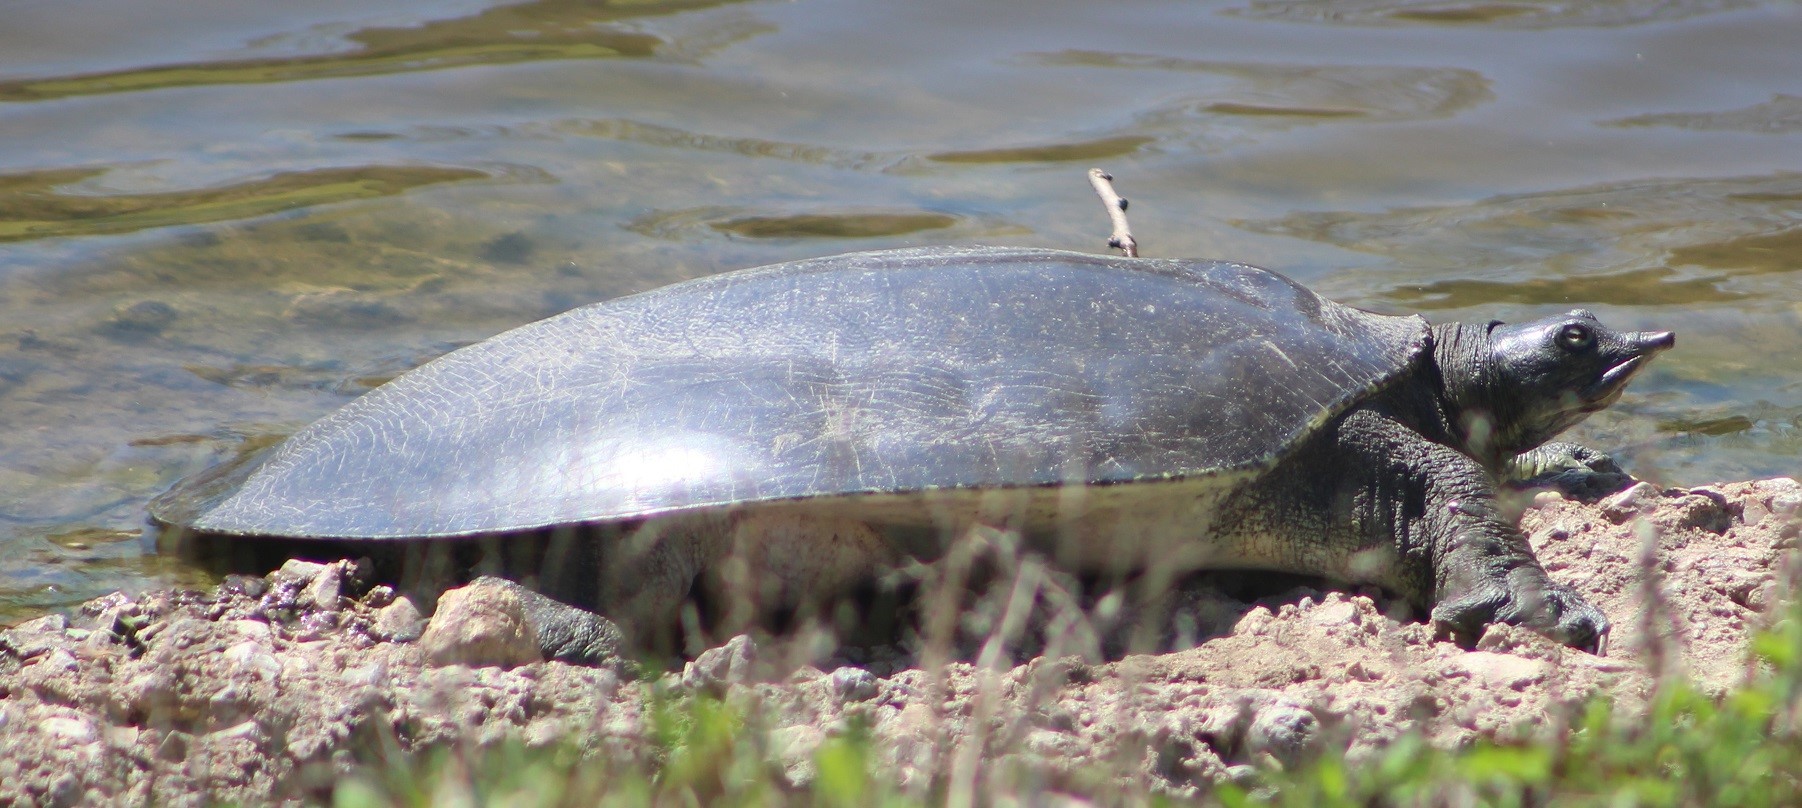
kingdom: Animalia
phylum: Chordata
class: Testudines
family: Trionychidae
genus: Apalone
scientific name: Apalone spinifera
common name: Spiny softshell turtle
